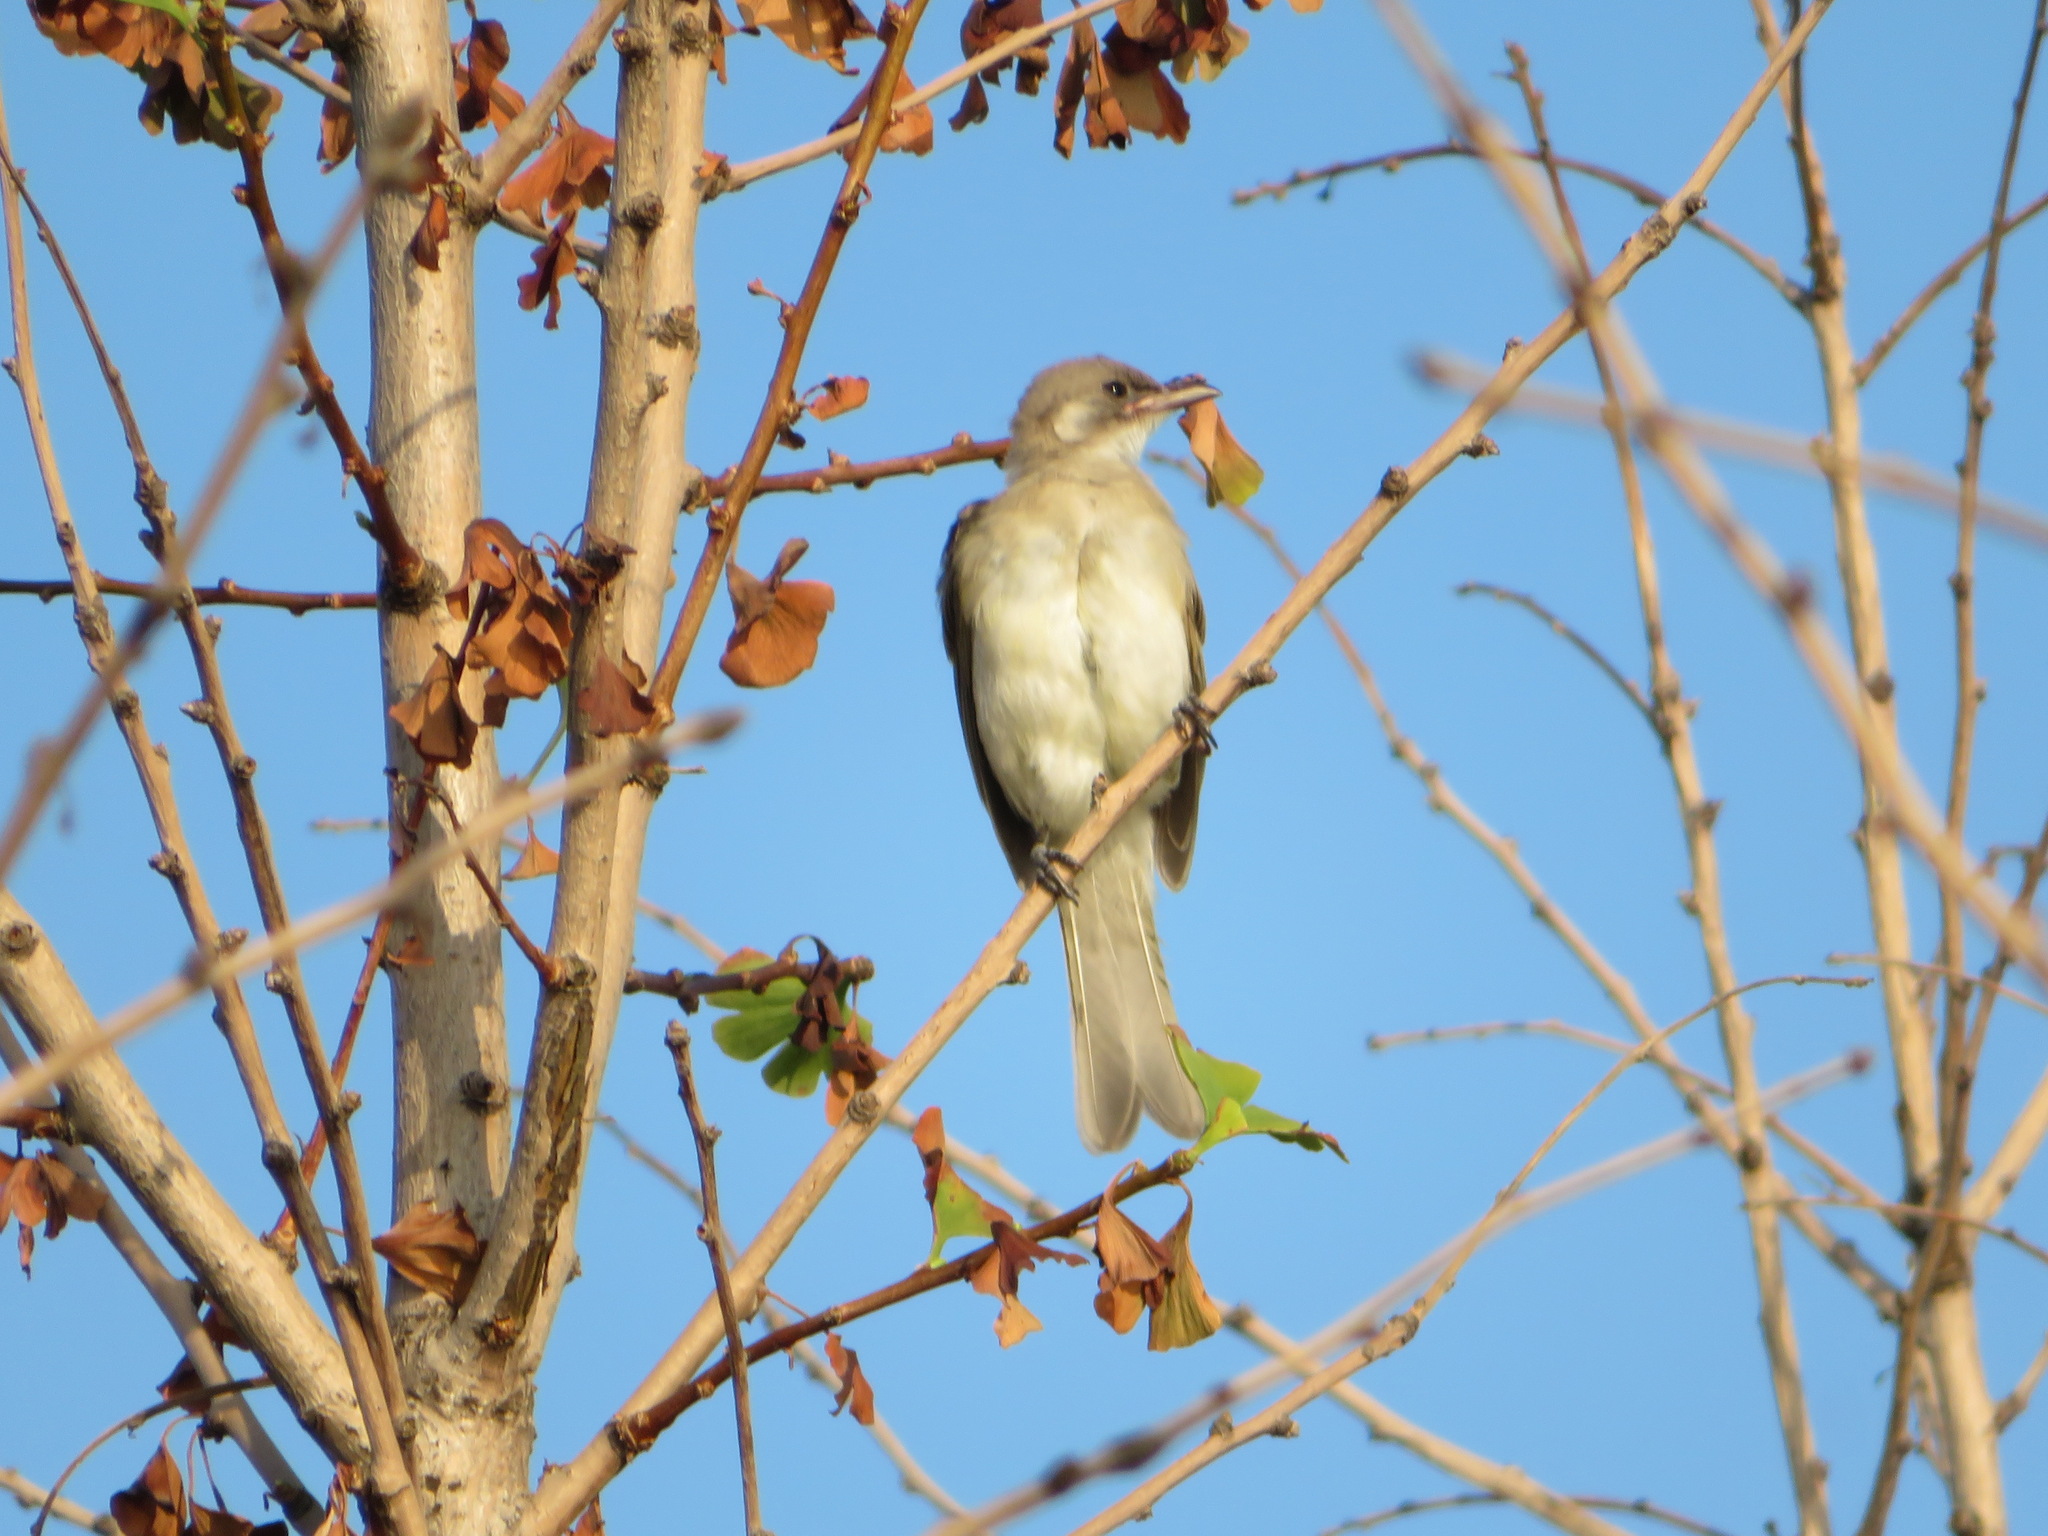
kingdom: Animalia
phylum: Chordata
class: Aves
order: Passeriformes
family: Pycnonotidae
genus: Pycnonotus
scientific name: Pycnonotus sinensis
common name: Light-vented bulbul
